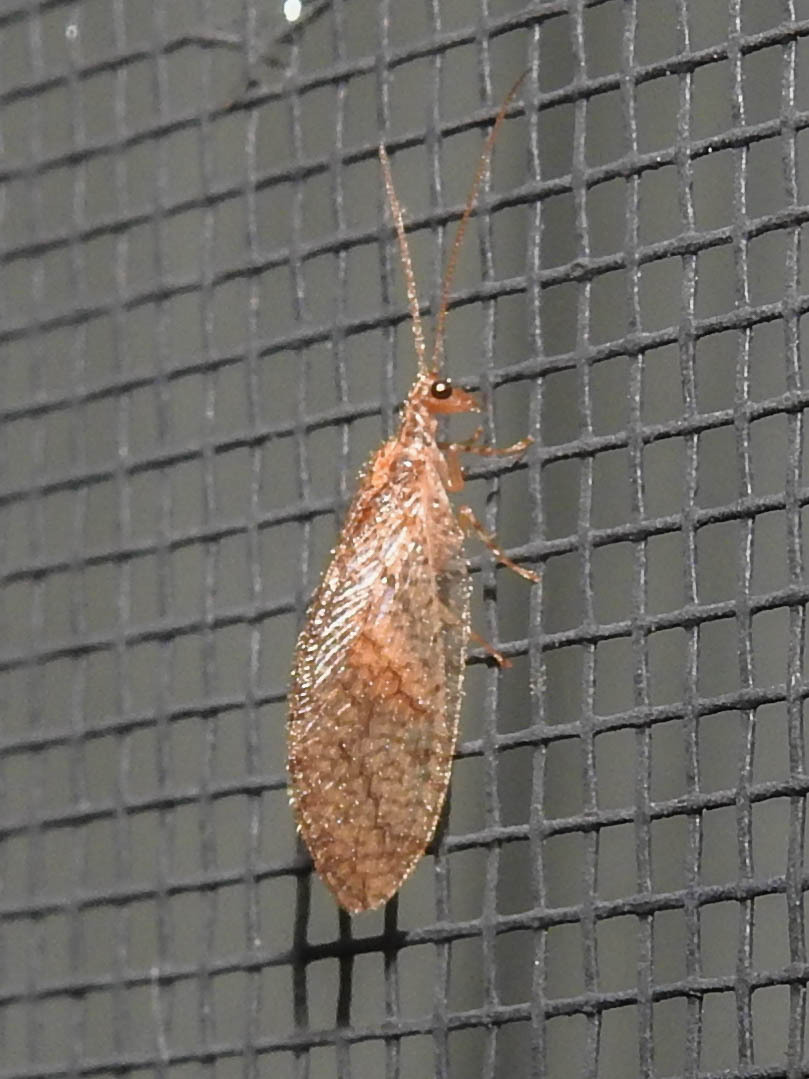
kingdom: Animalia
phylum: Arthropoda
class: Insecta
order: Neuroptera
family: Hemerobiidae
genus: Micromus
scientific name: Micromus posticus
